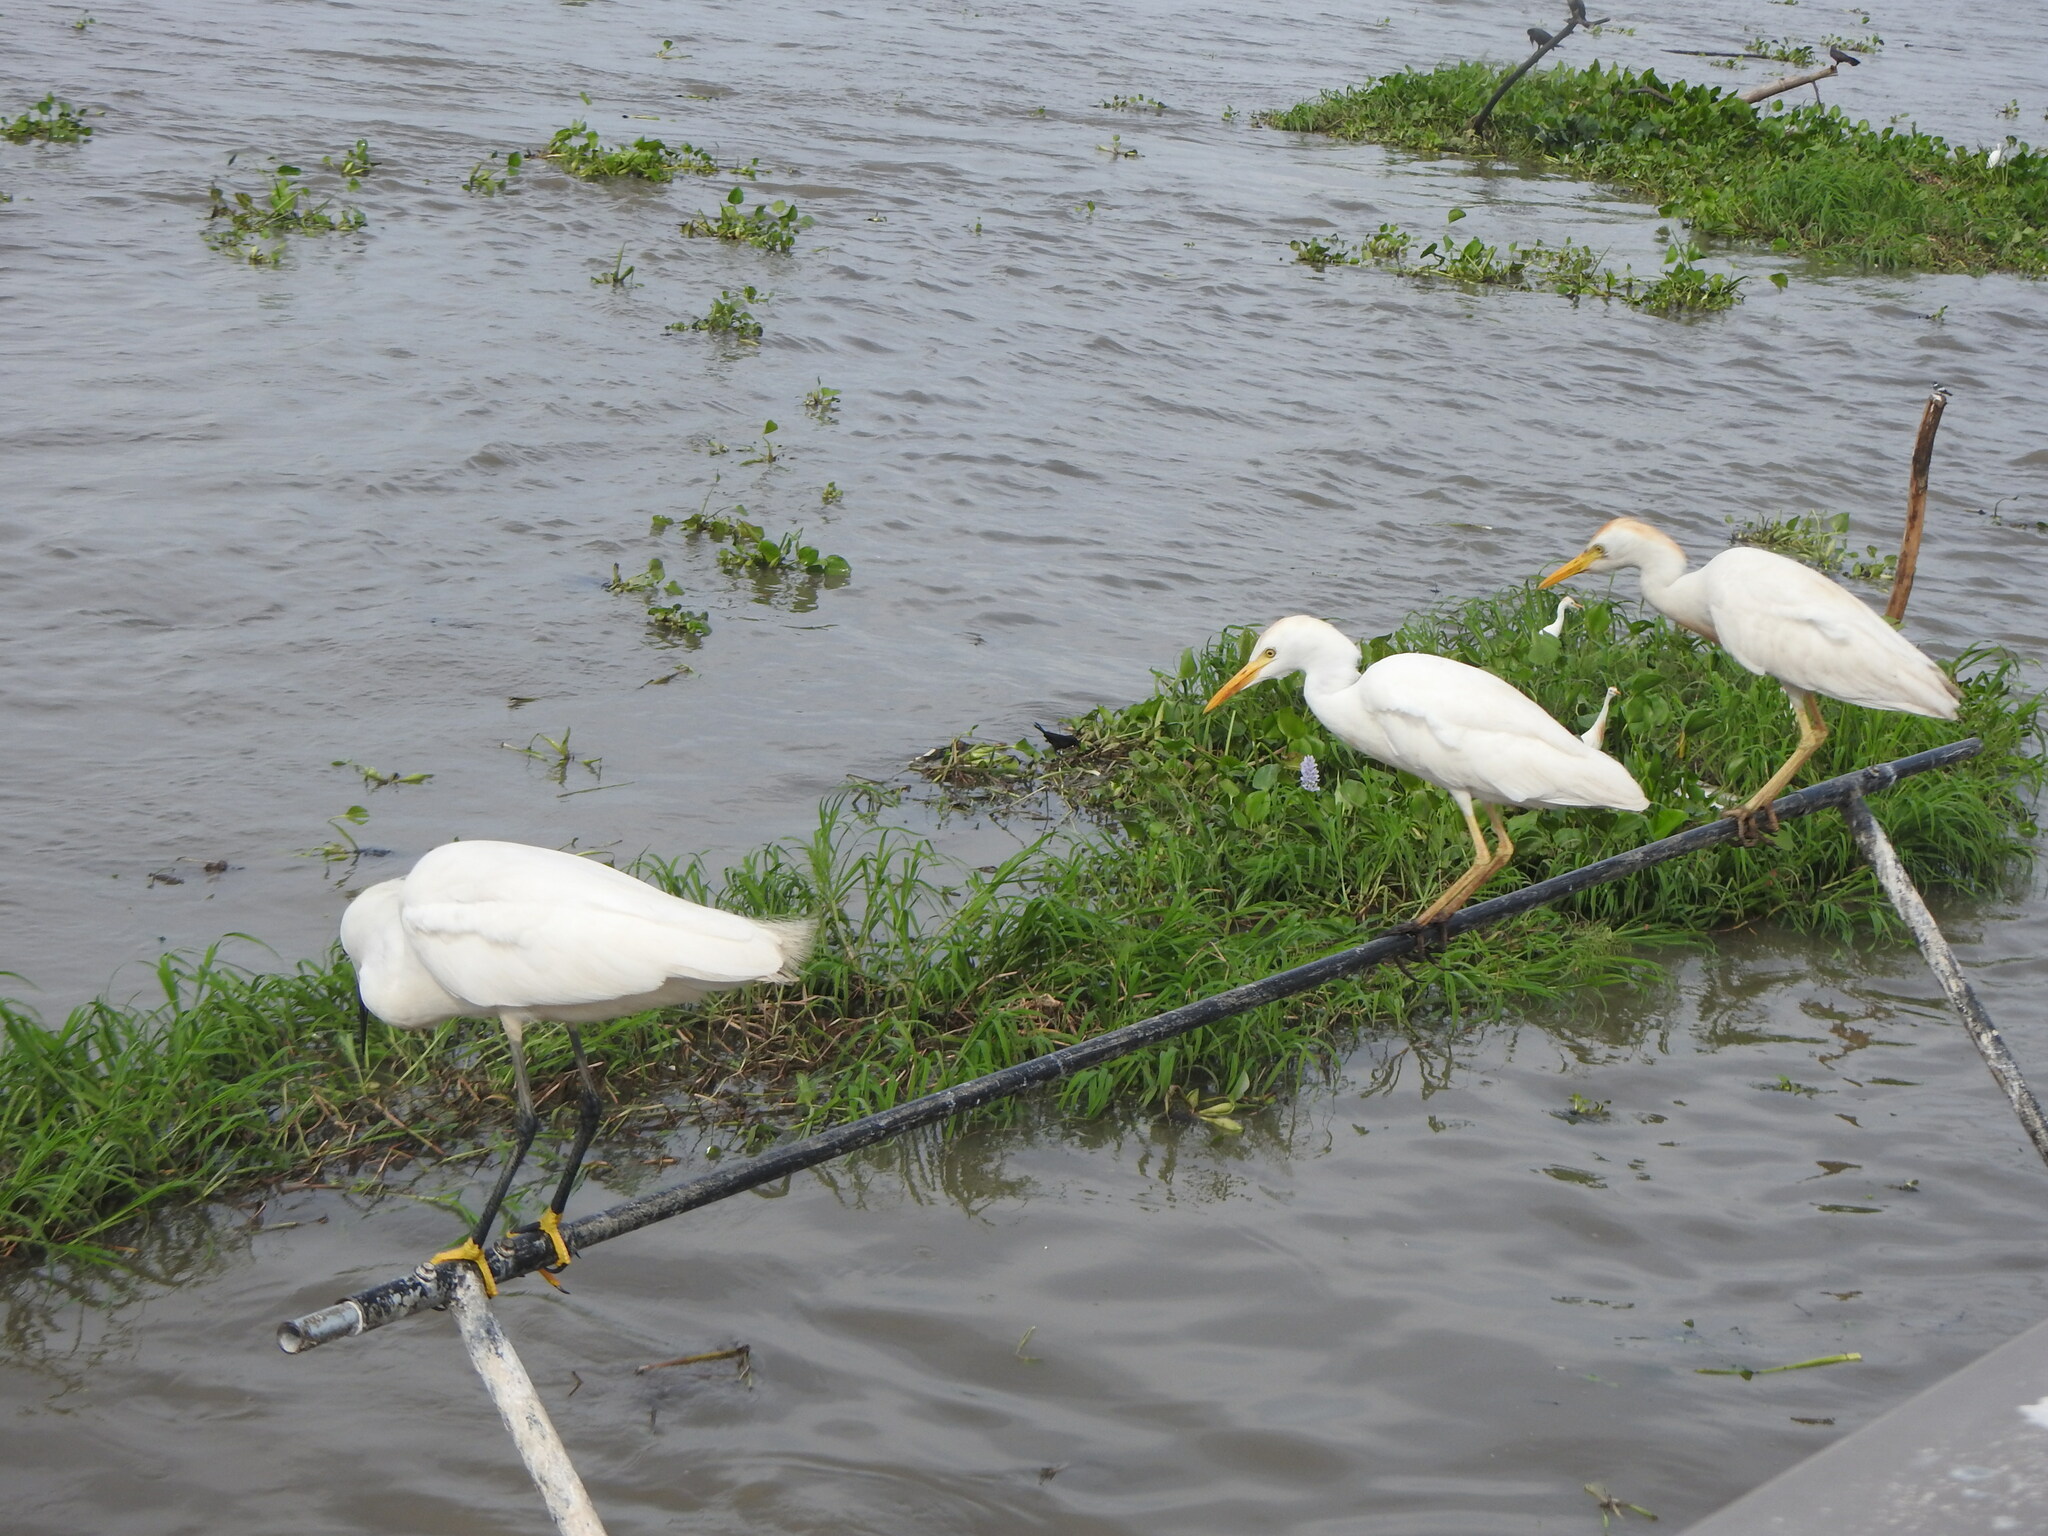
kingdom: Animalia
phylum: Chordata
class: Aves
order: Pelecaniformes
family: Ardeidae
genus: Bubulcus
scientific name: Bubulcus ibis
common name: Cattle egret
